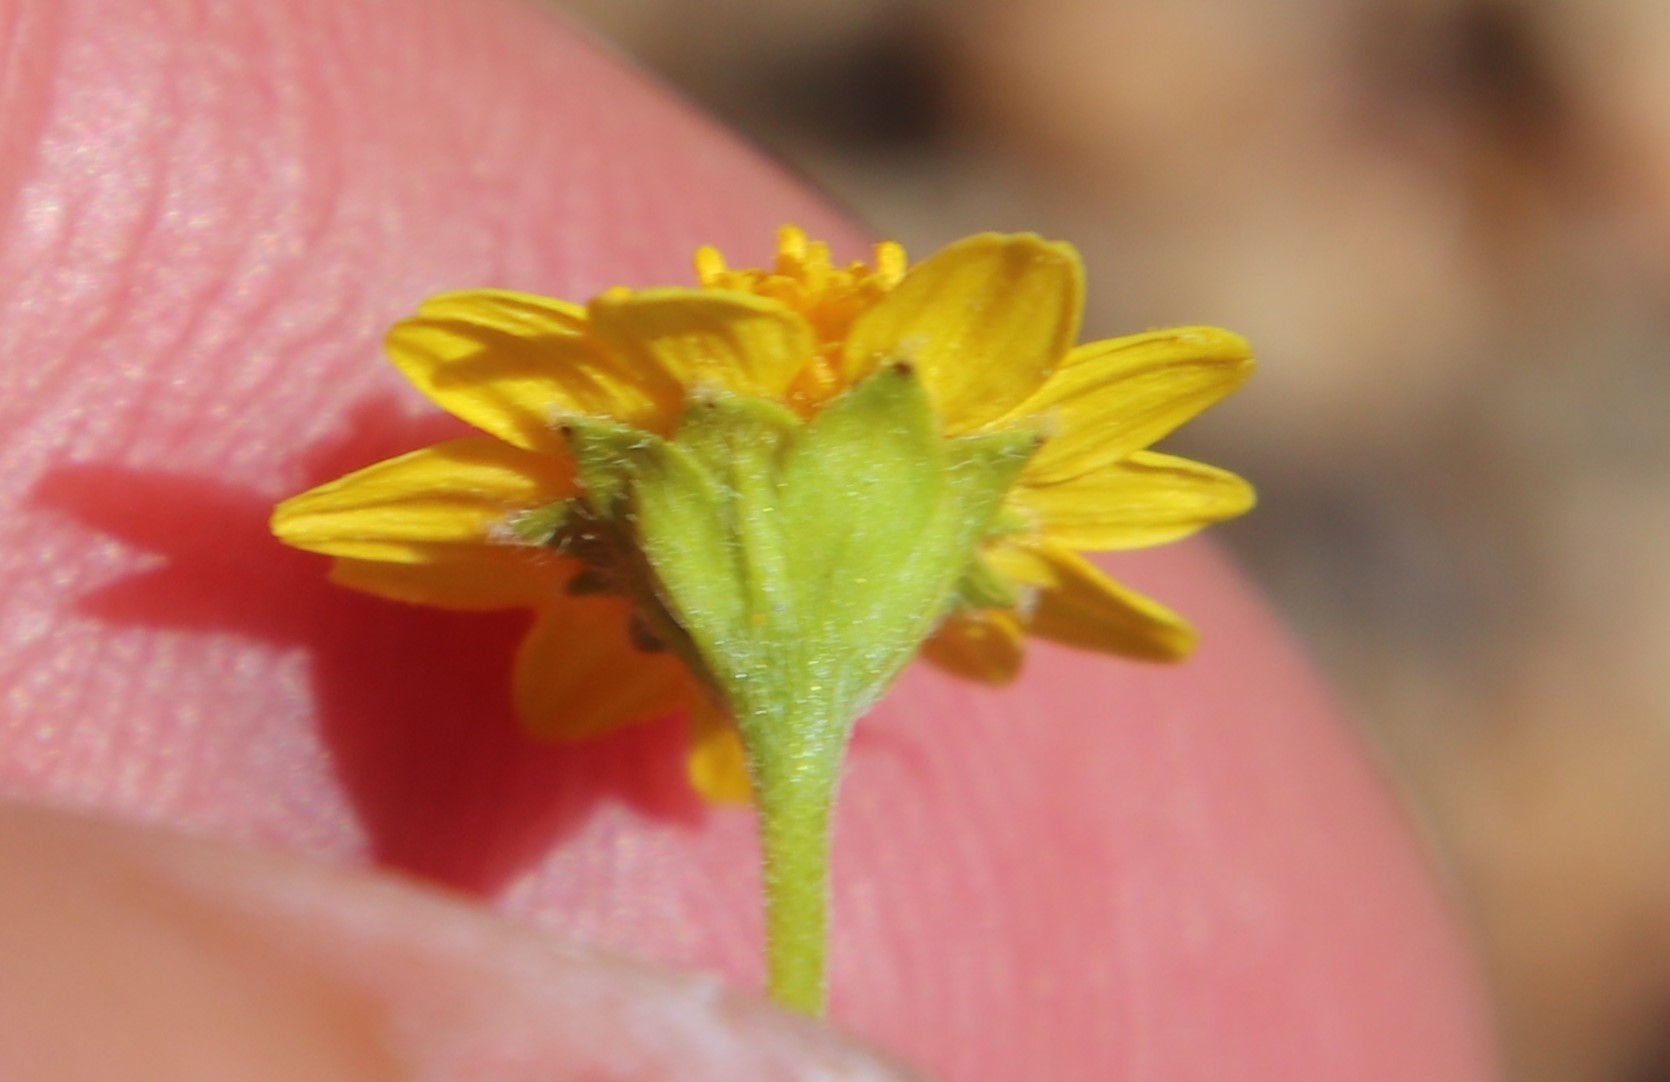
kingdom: Plantae
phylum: Tracheophyta
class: Magnoliopsida
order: Asterales
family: Asteraceae
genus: Lasthenia
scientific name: Lasthenia gracilis
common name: Common goldfields
